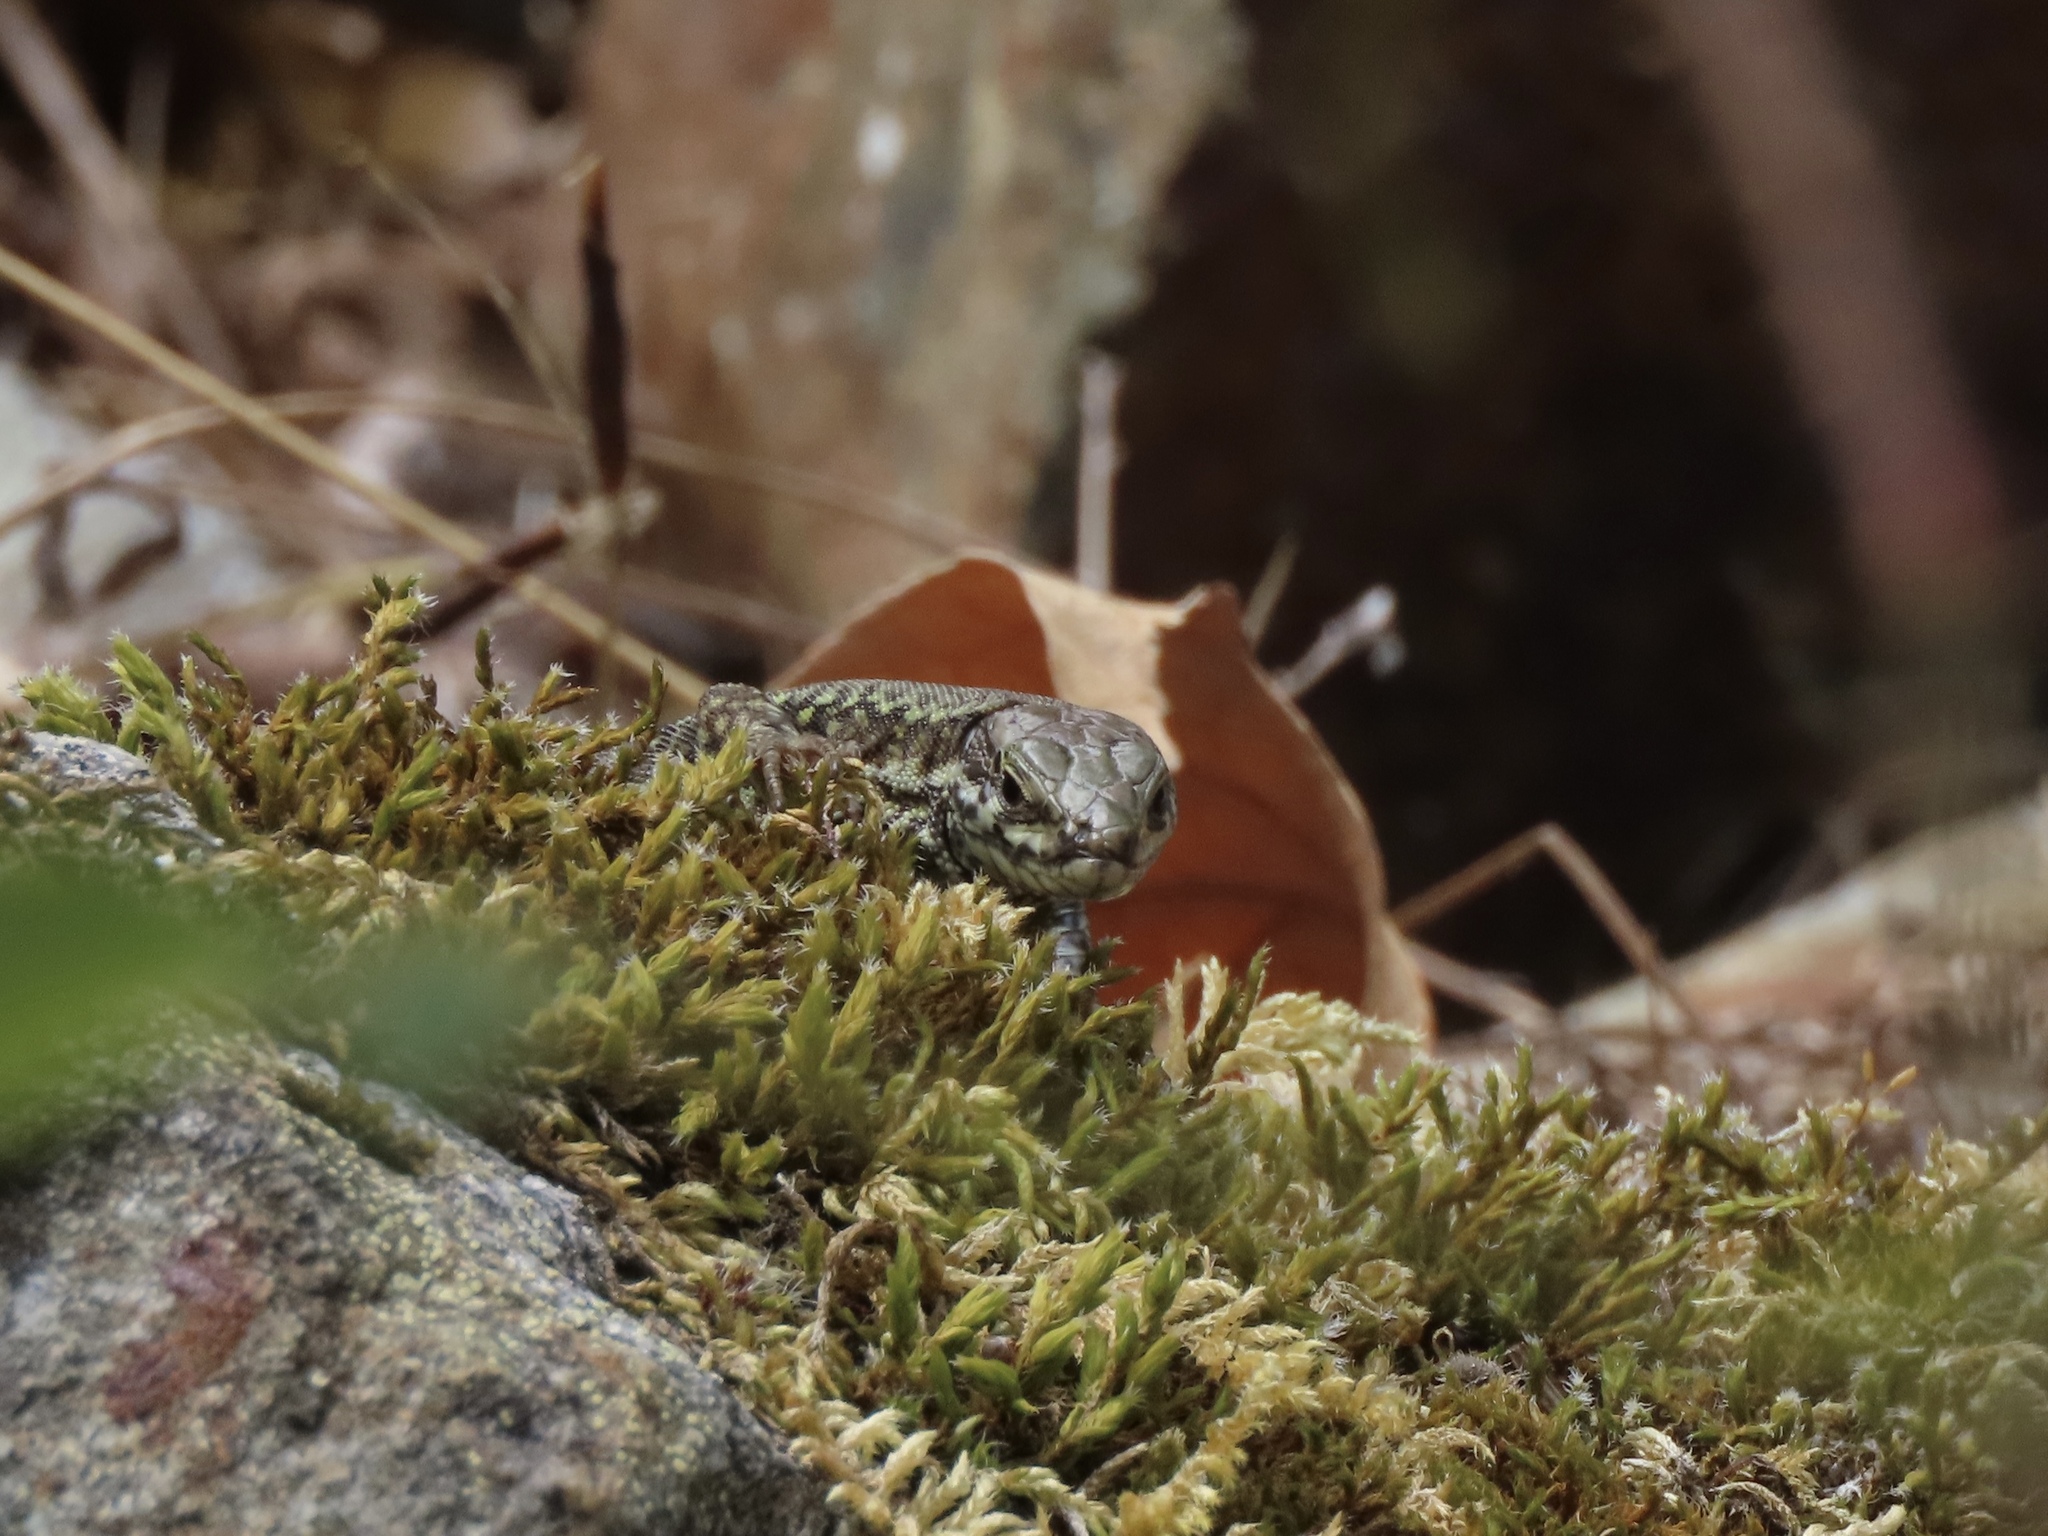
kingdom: Animalia
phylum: Chordata
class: Squamata
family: Lacertidae
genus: Podarcis
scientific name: Podarcis muralis
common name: Common wall lizard
